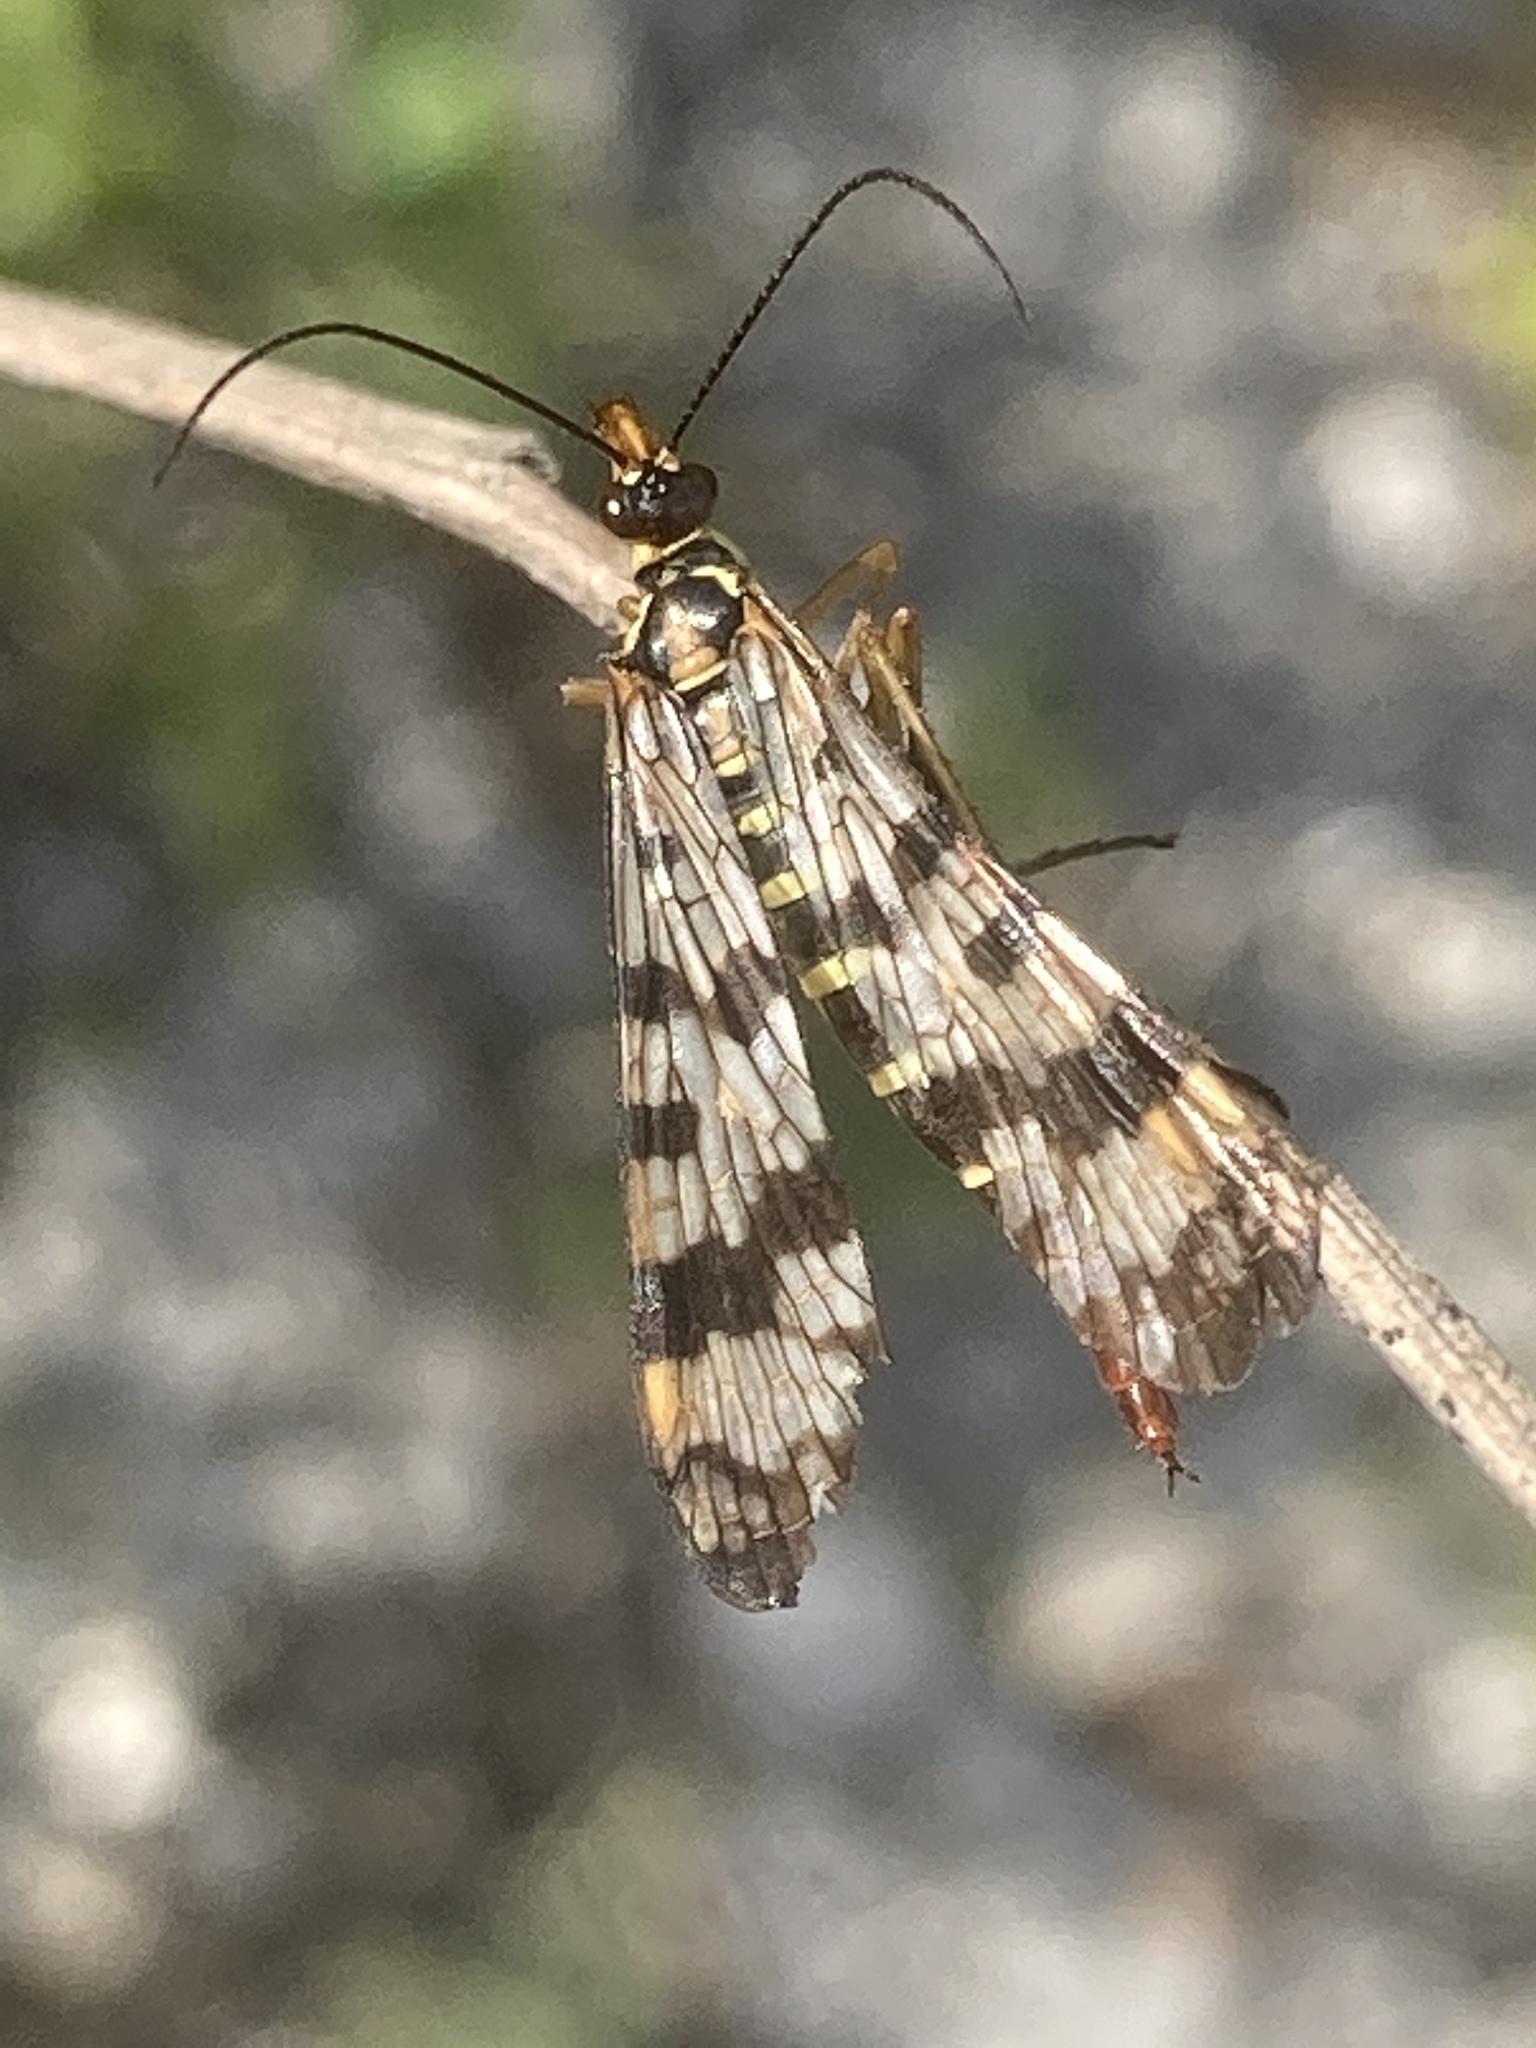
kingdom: Animalia
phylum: Arthropoda
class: Insecta
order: Mecoptera
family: Panorpidae
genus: Panorpa
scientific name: Panorpa communis
